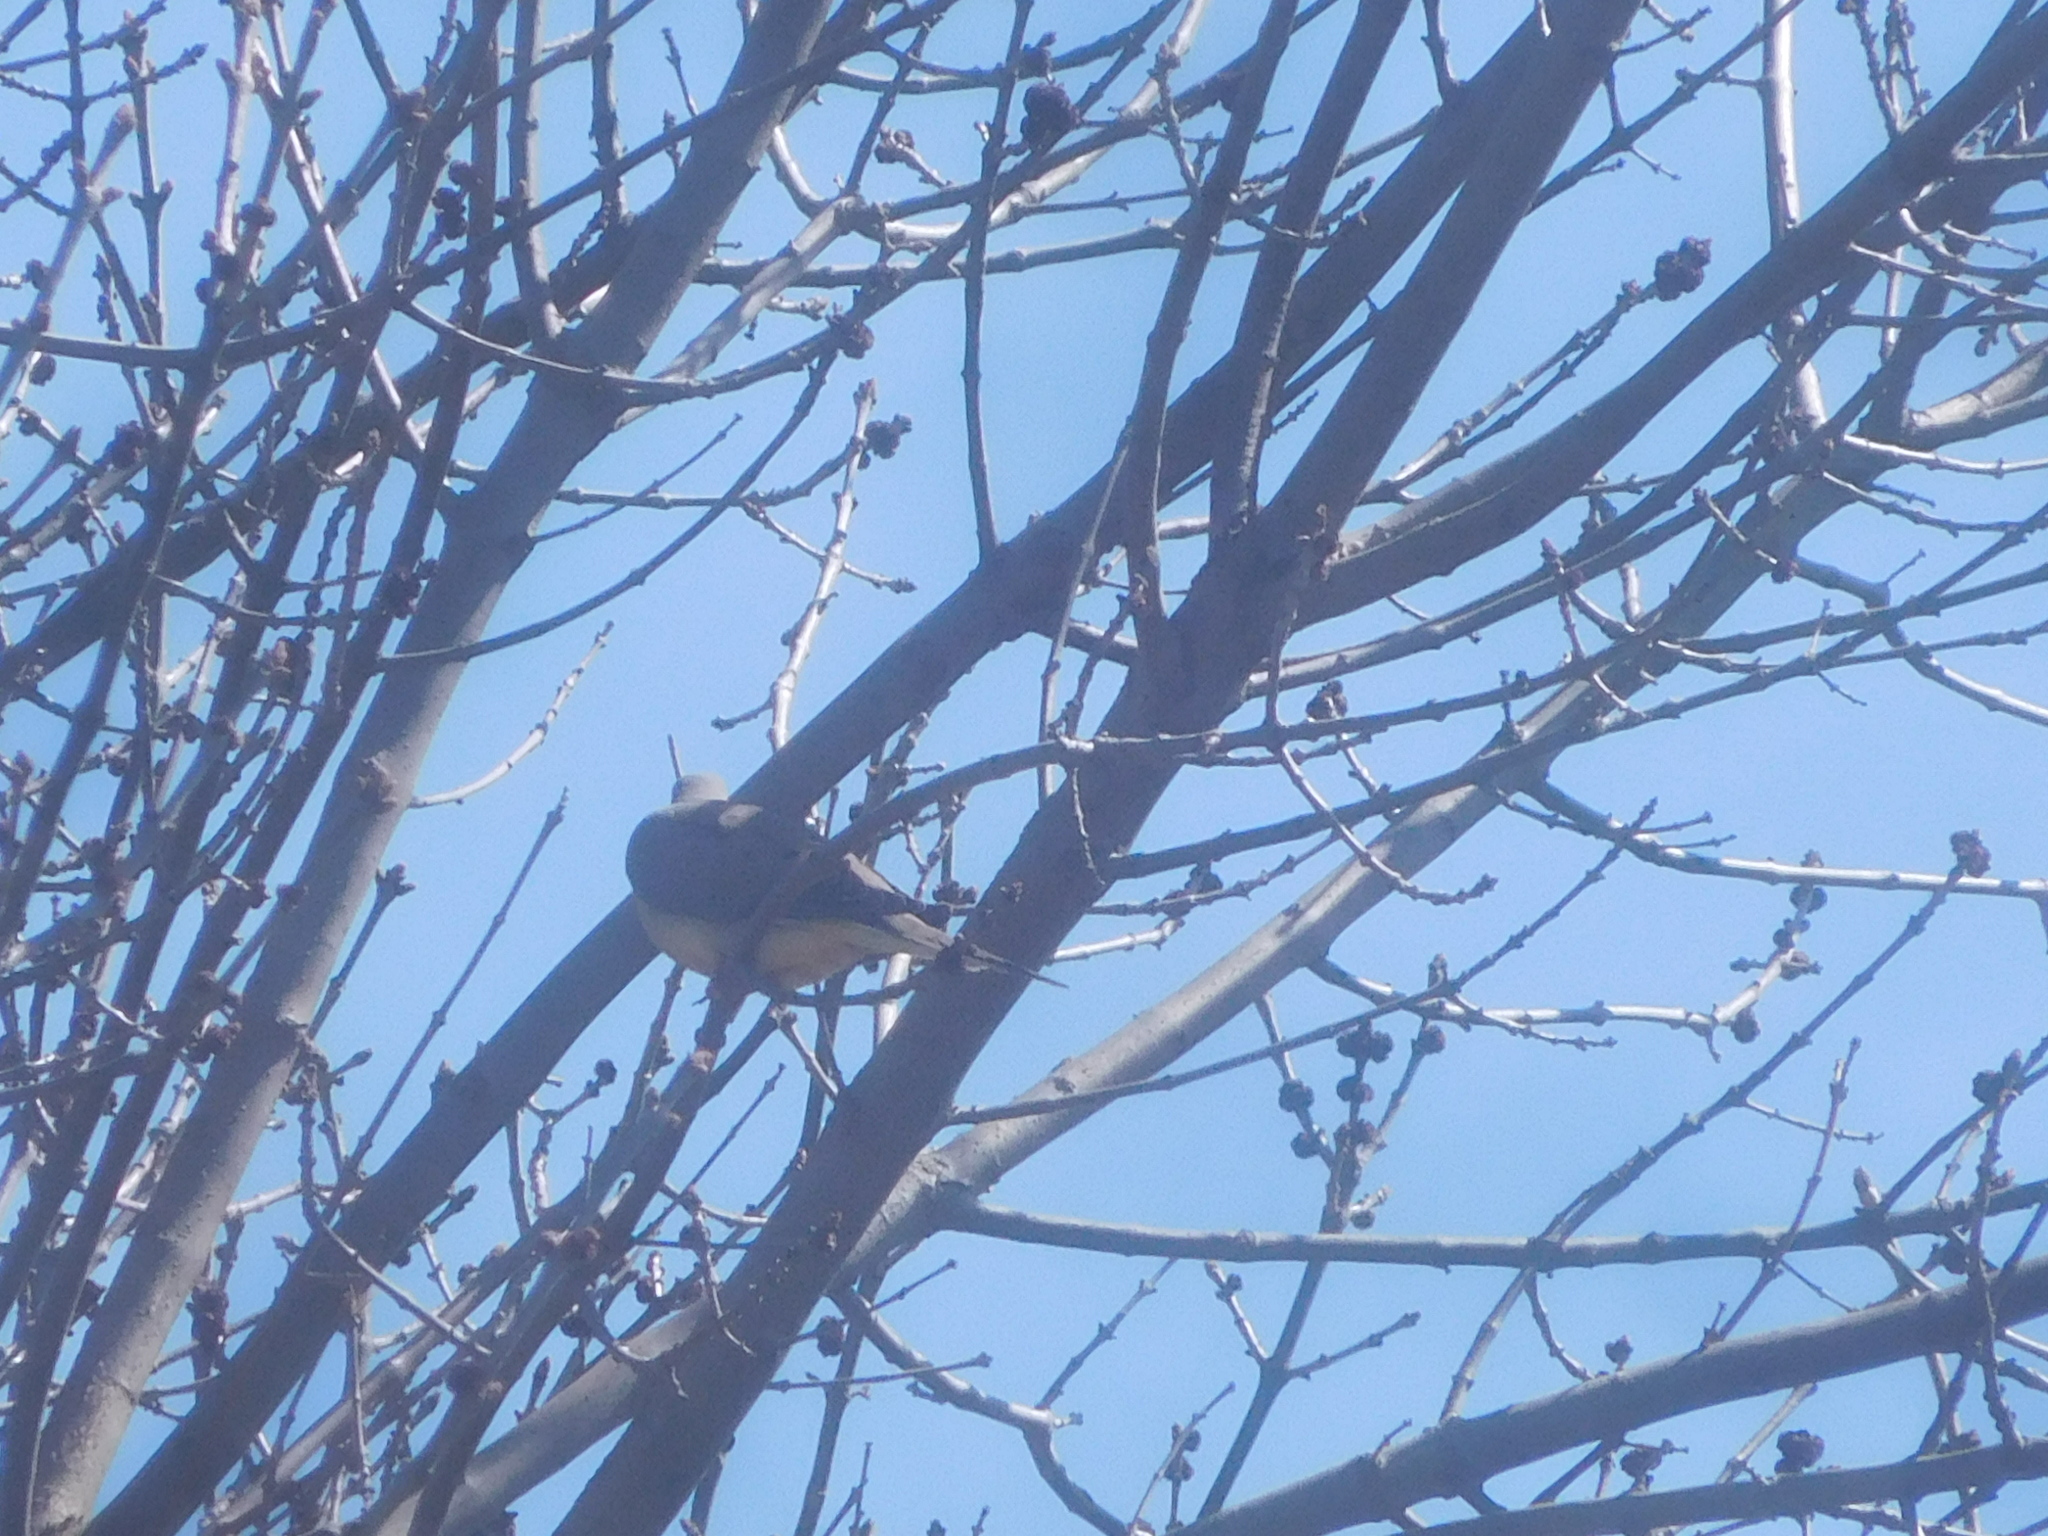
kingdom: Animalia
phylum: Chordata
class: Aves
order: Columbiformes
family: Columbidae
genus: Zenaida
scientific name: Zenaida macroura
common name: Mourning dove
